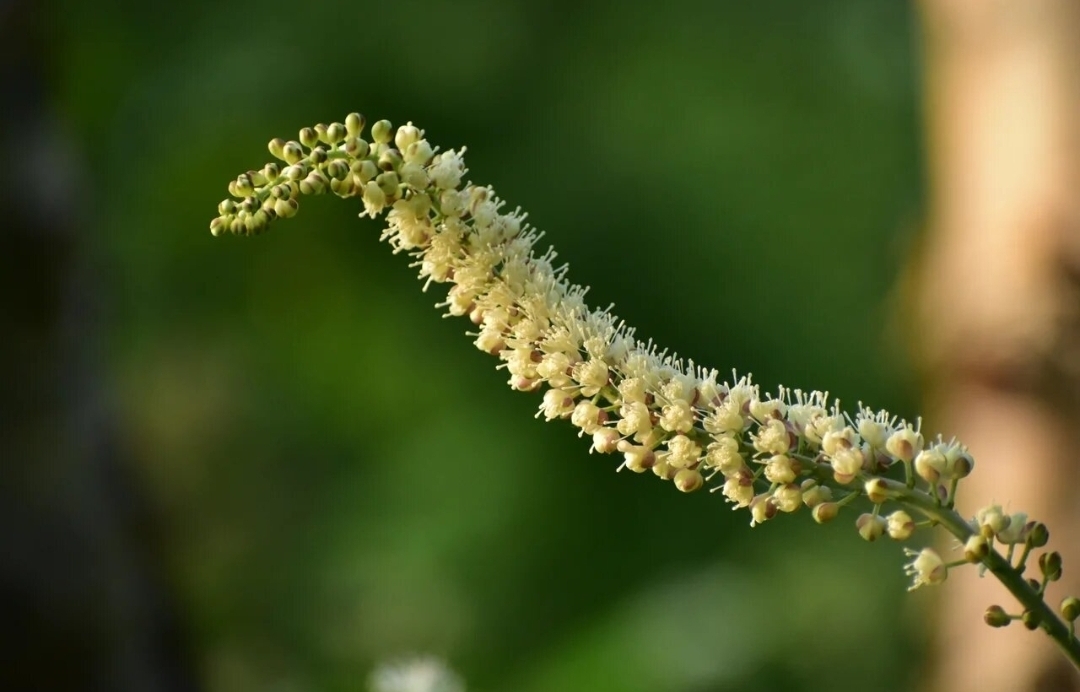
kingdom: Plantae
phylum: Tracheophyta
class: Magnoliopsida
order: Ranunculales
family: Ranunculaceae
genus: Actaea
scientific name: Actaea simplex
